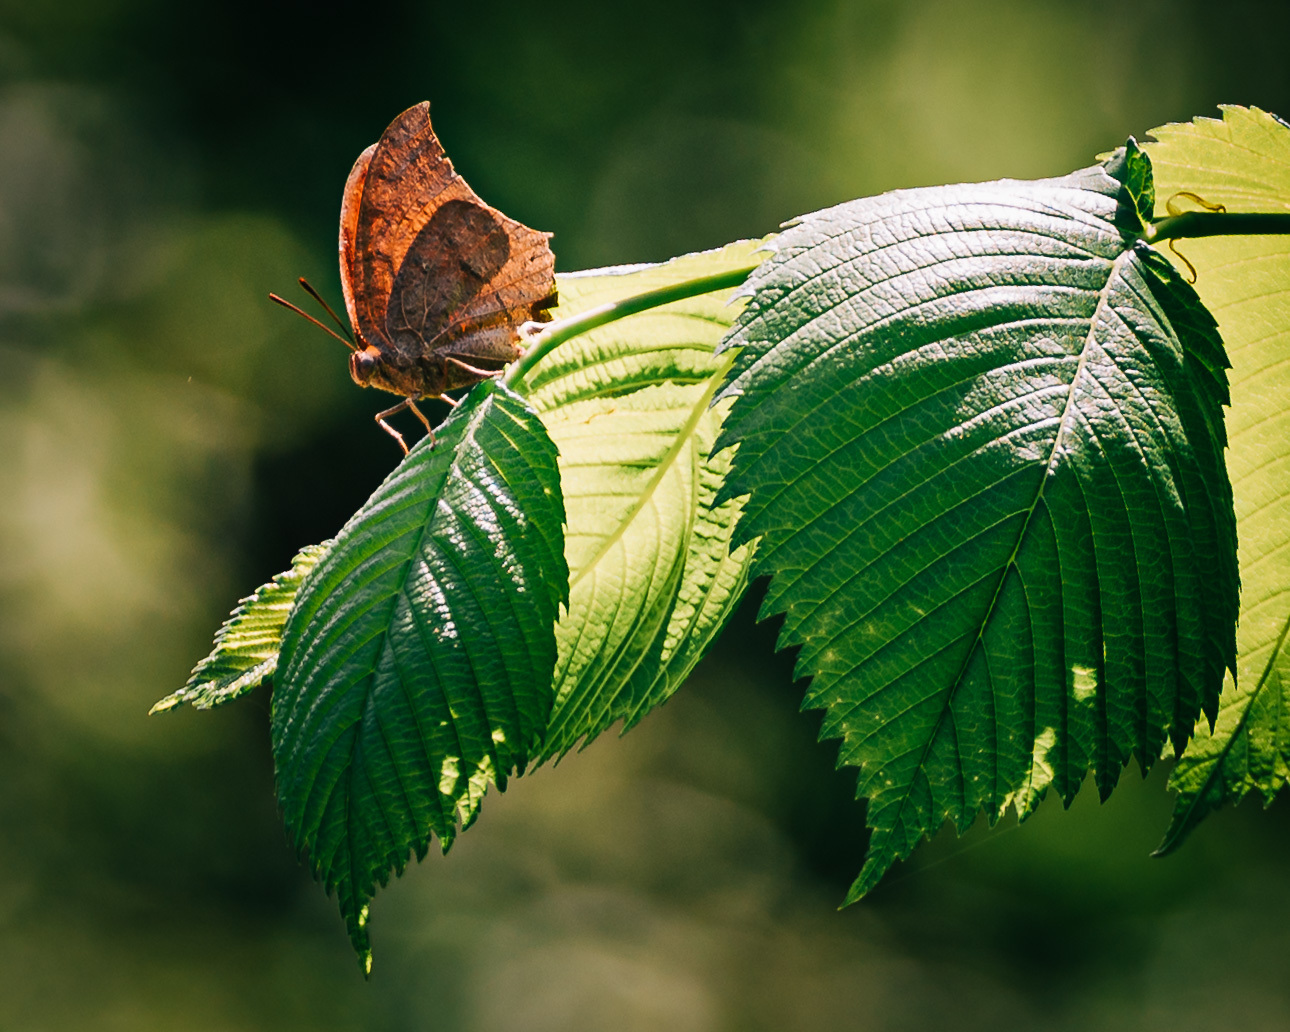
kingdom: Animalia
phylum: Arthropoda
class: Insecta
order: Lepidoptera
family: Nymphalidae
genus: Anaea
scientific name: Anaea andria
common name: Goatweed leafwing
